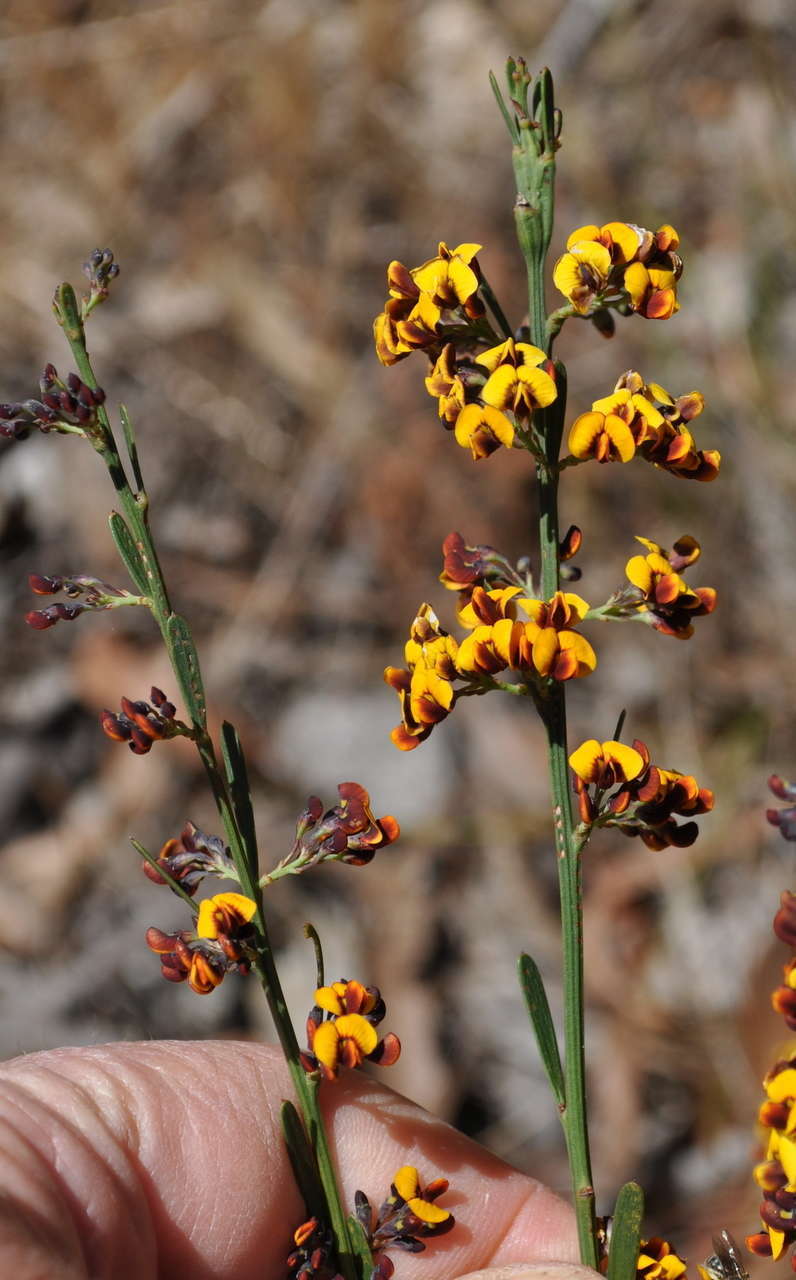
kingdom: Plantae
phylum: Tracheophyta
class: Magnoliopsida
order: Fabales
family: Fabaceae
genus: Daviesia
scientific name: Daviesia leptophylla
